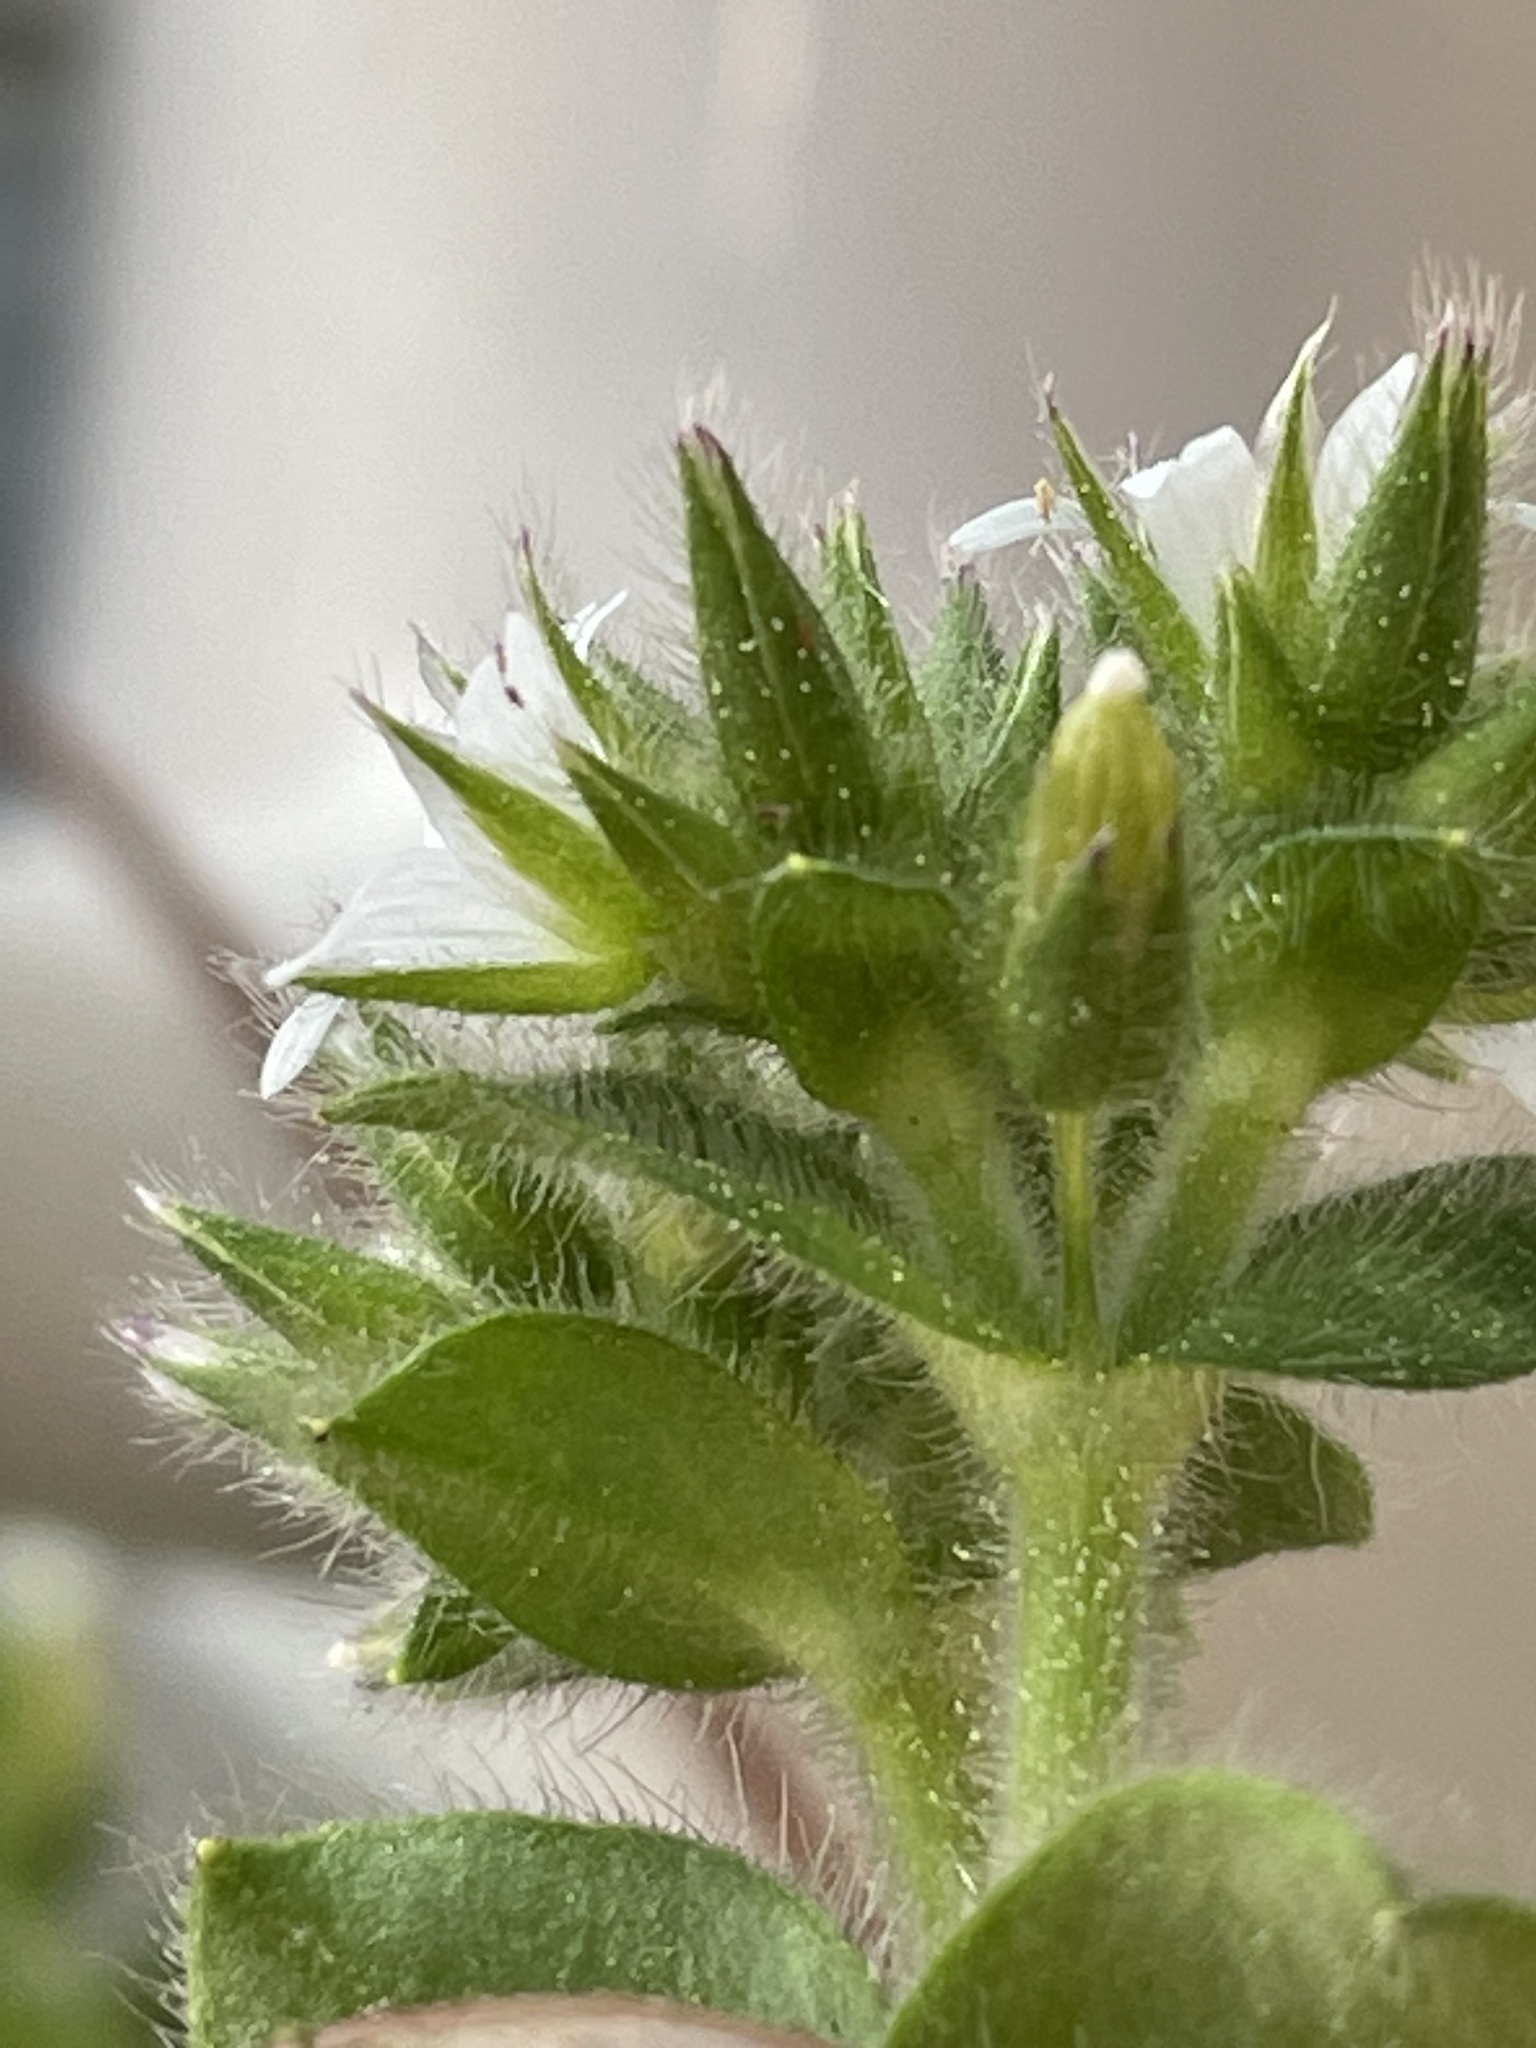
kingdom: Plantae
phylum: Tracheophyta
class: Magnoliopsida
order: Caryophyllales
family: Caryophyllaceae
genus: Cerastium
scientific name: Cerastium glomeratum
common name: Sticky chickweed
